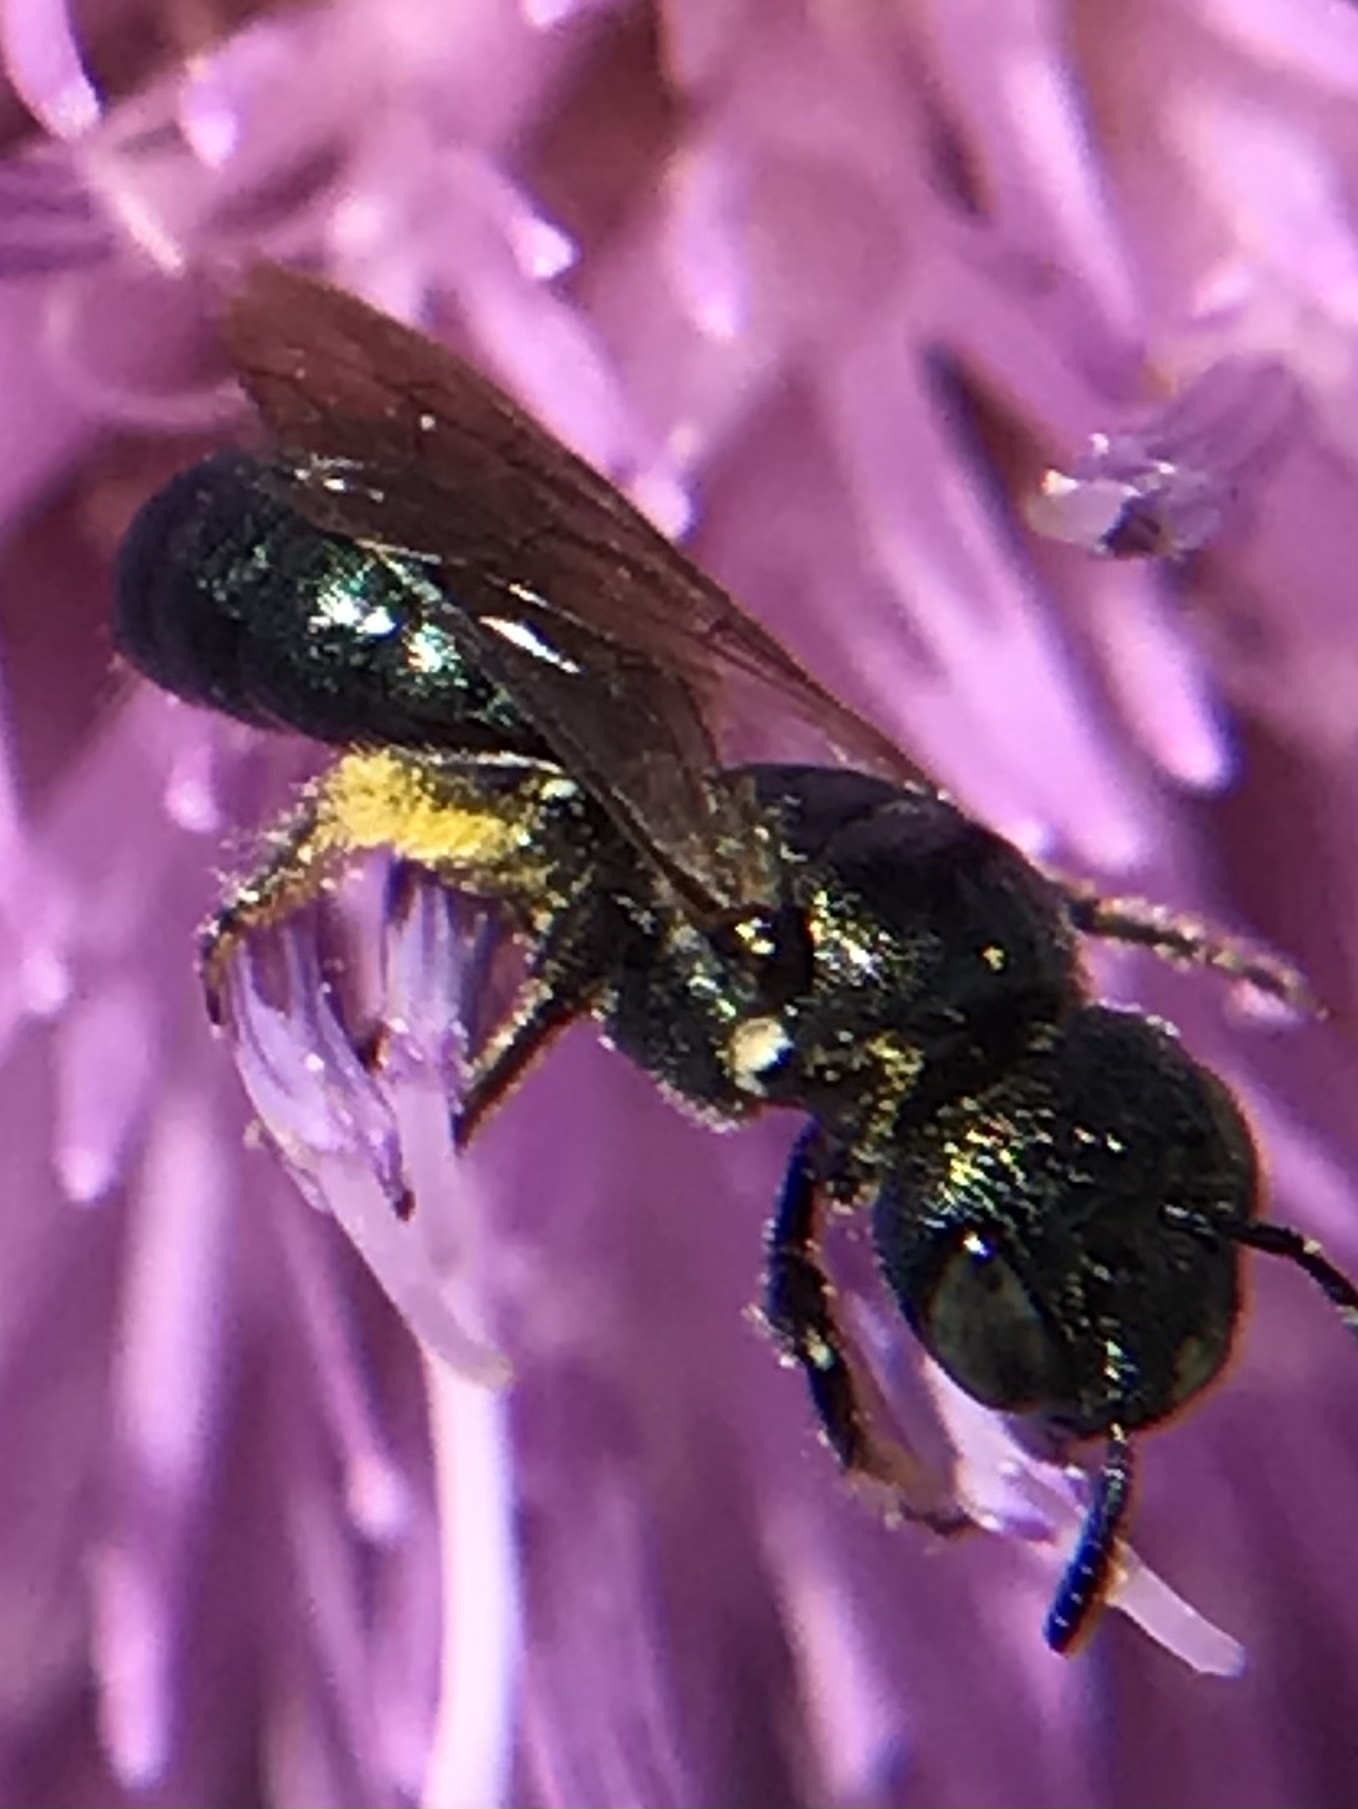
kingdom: Animalia
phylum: Arthropoda
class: Insecta
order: Hymenoptera
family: Apidae
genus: Zadontomerus
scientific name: Zadontomerus
